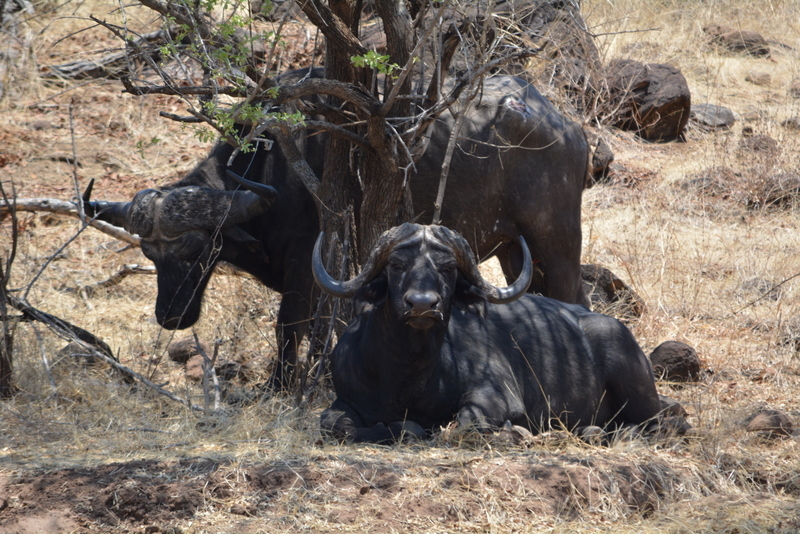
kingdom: Animalia
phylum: Chordata
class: Mammalia
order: Artiodactyla
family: Bovidae
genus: Syncerus
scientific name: Syncerus caffer
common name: African buffalo
